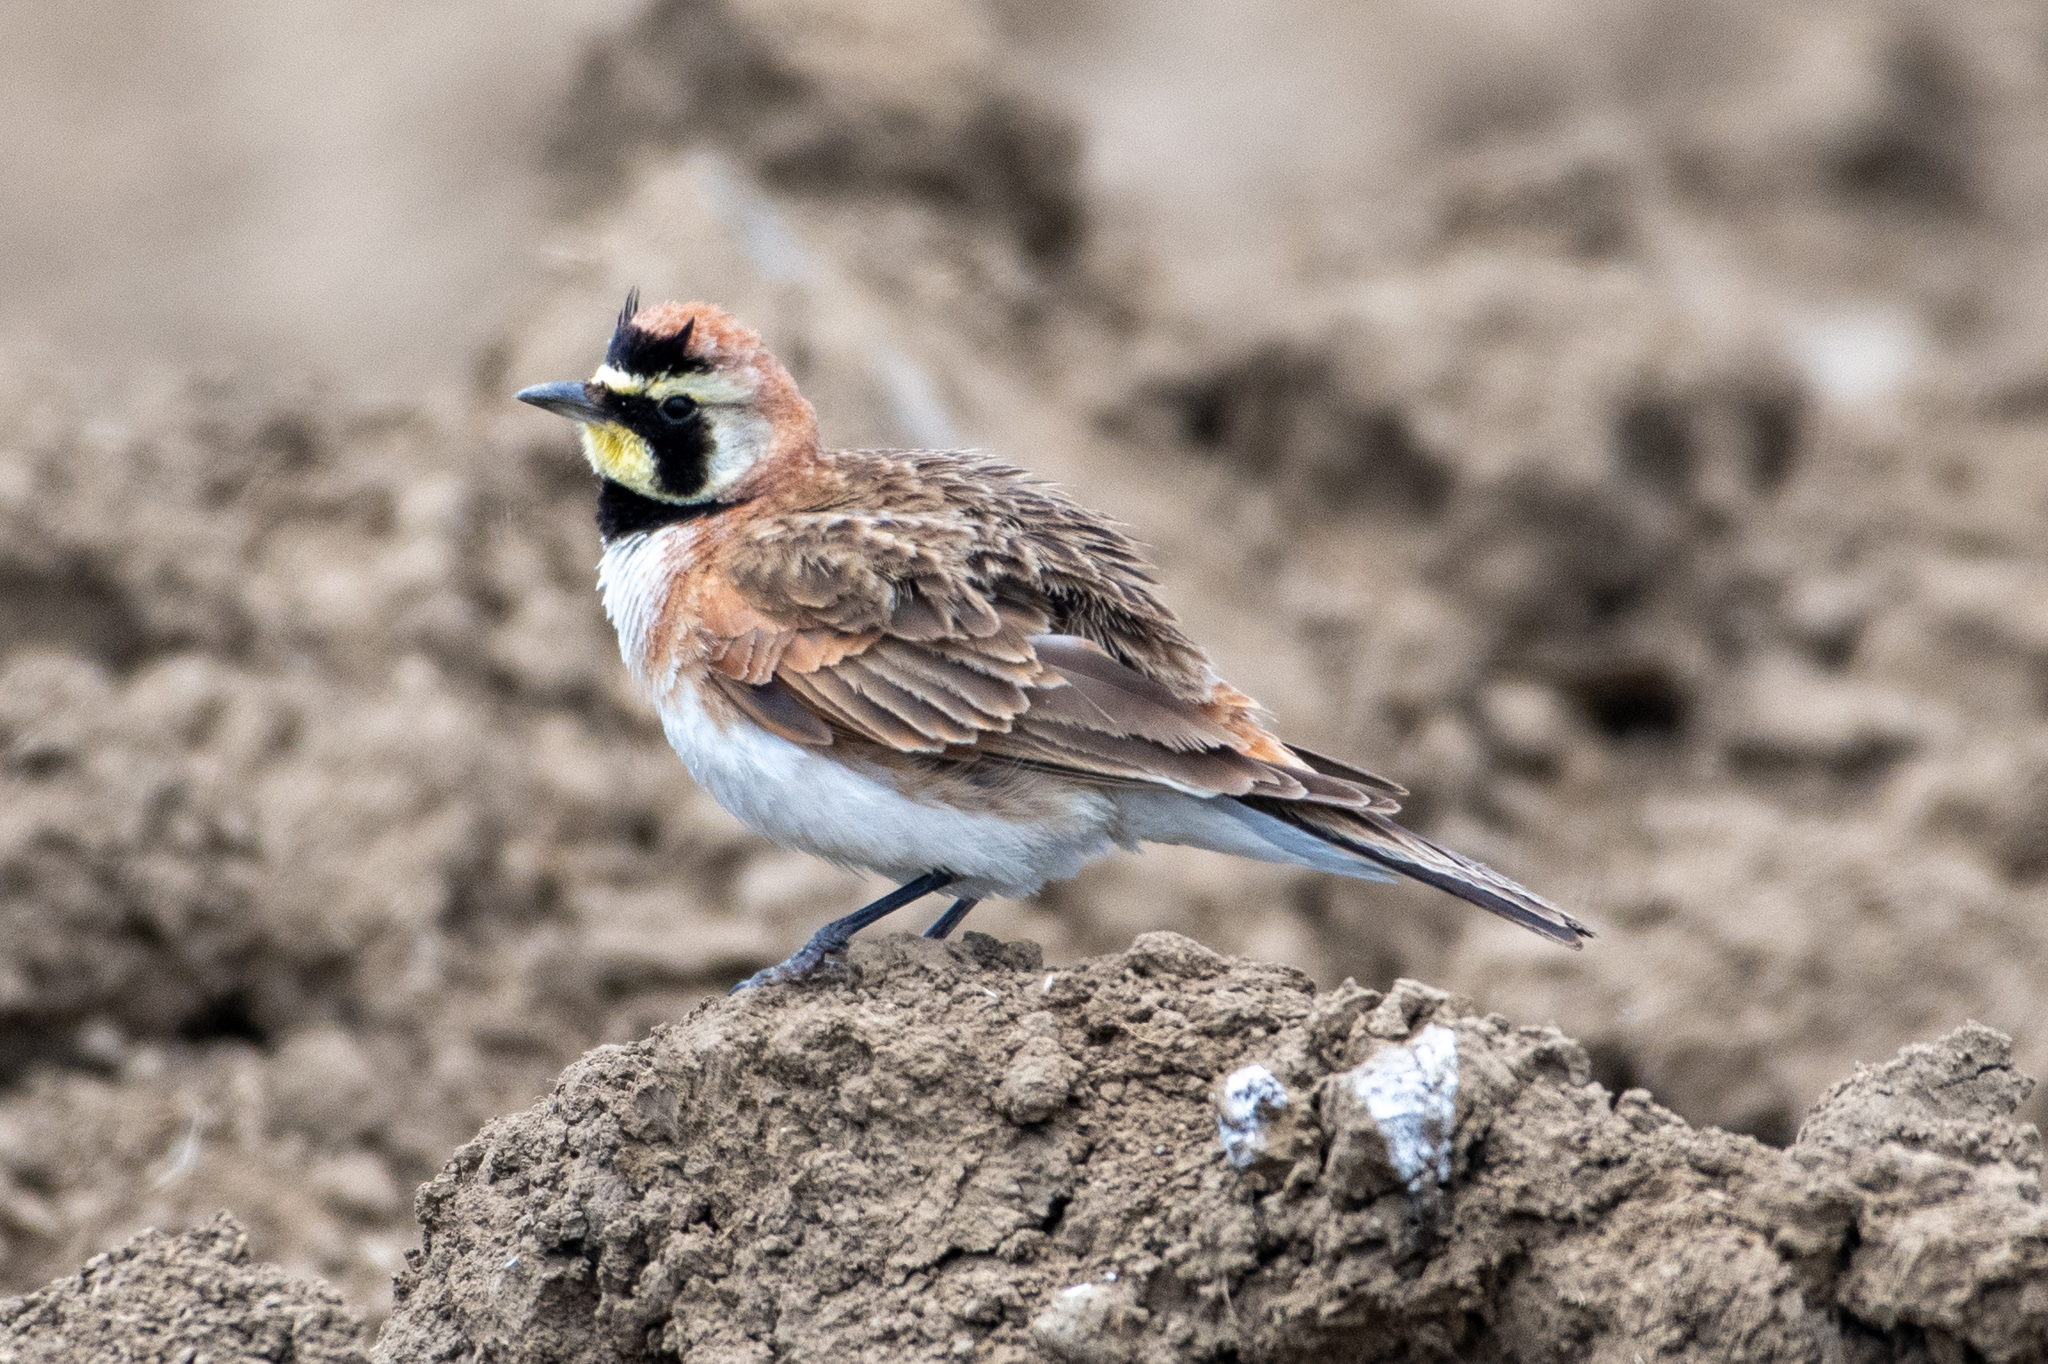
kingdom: Animalia
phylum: Chordata
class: Aves
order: Passeriformes
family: Alaudidae
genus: Eremophila
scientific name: Eremophila alpestris
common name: Horned lark
